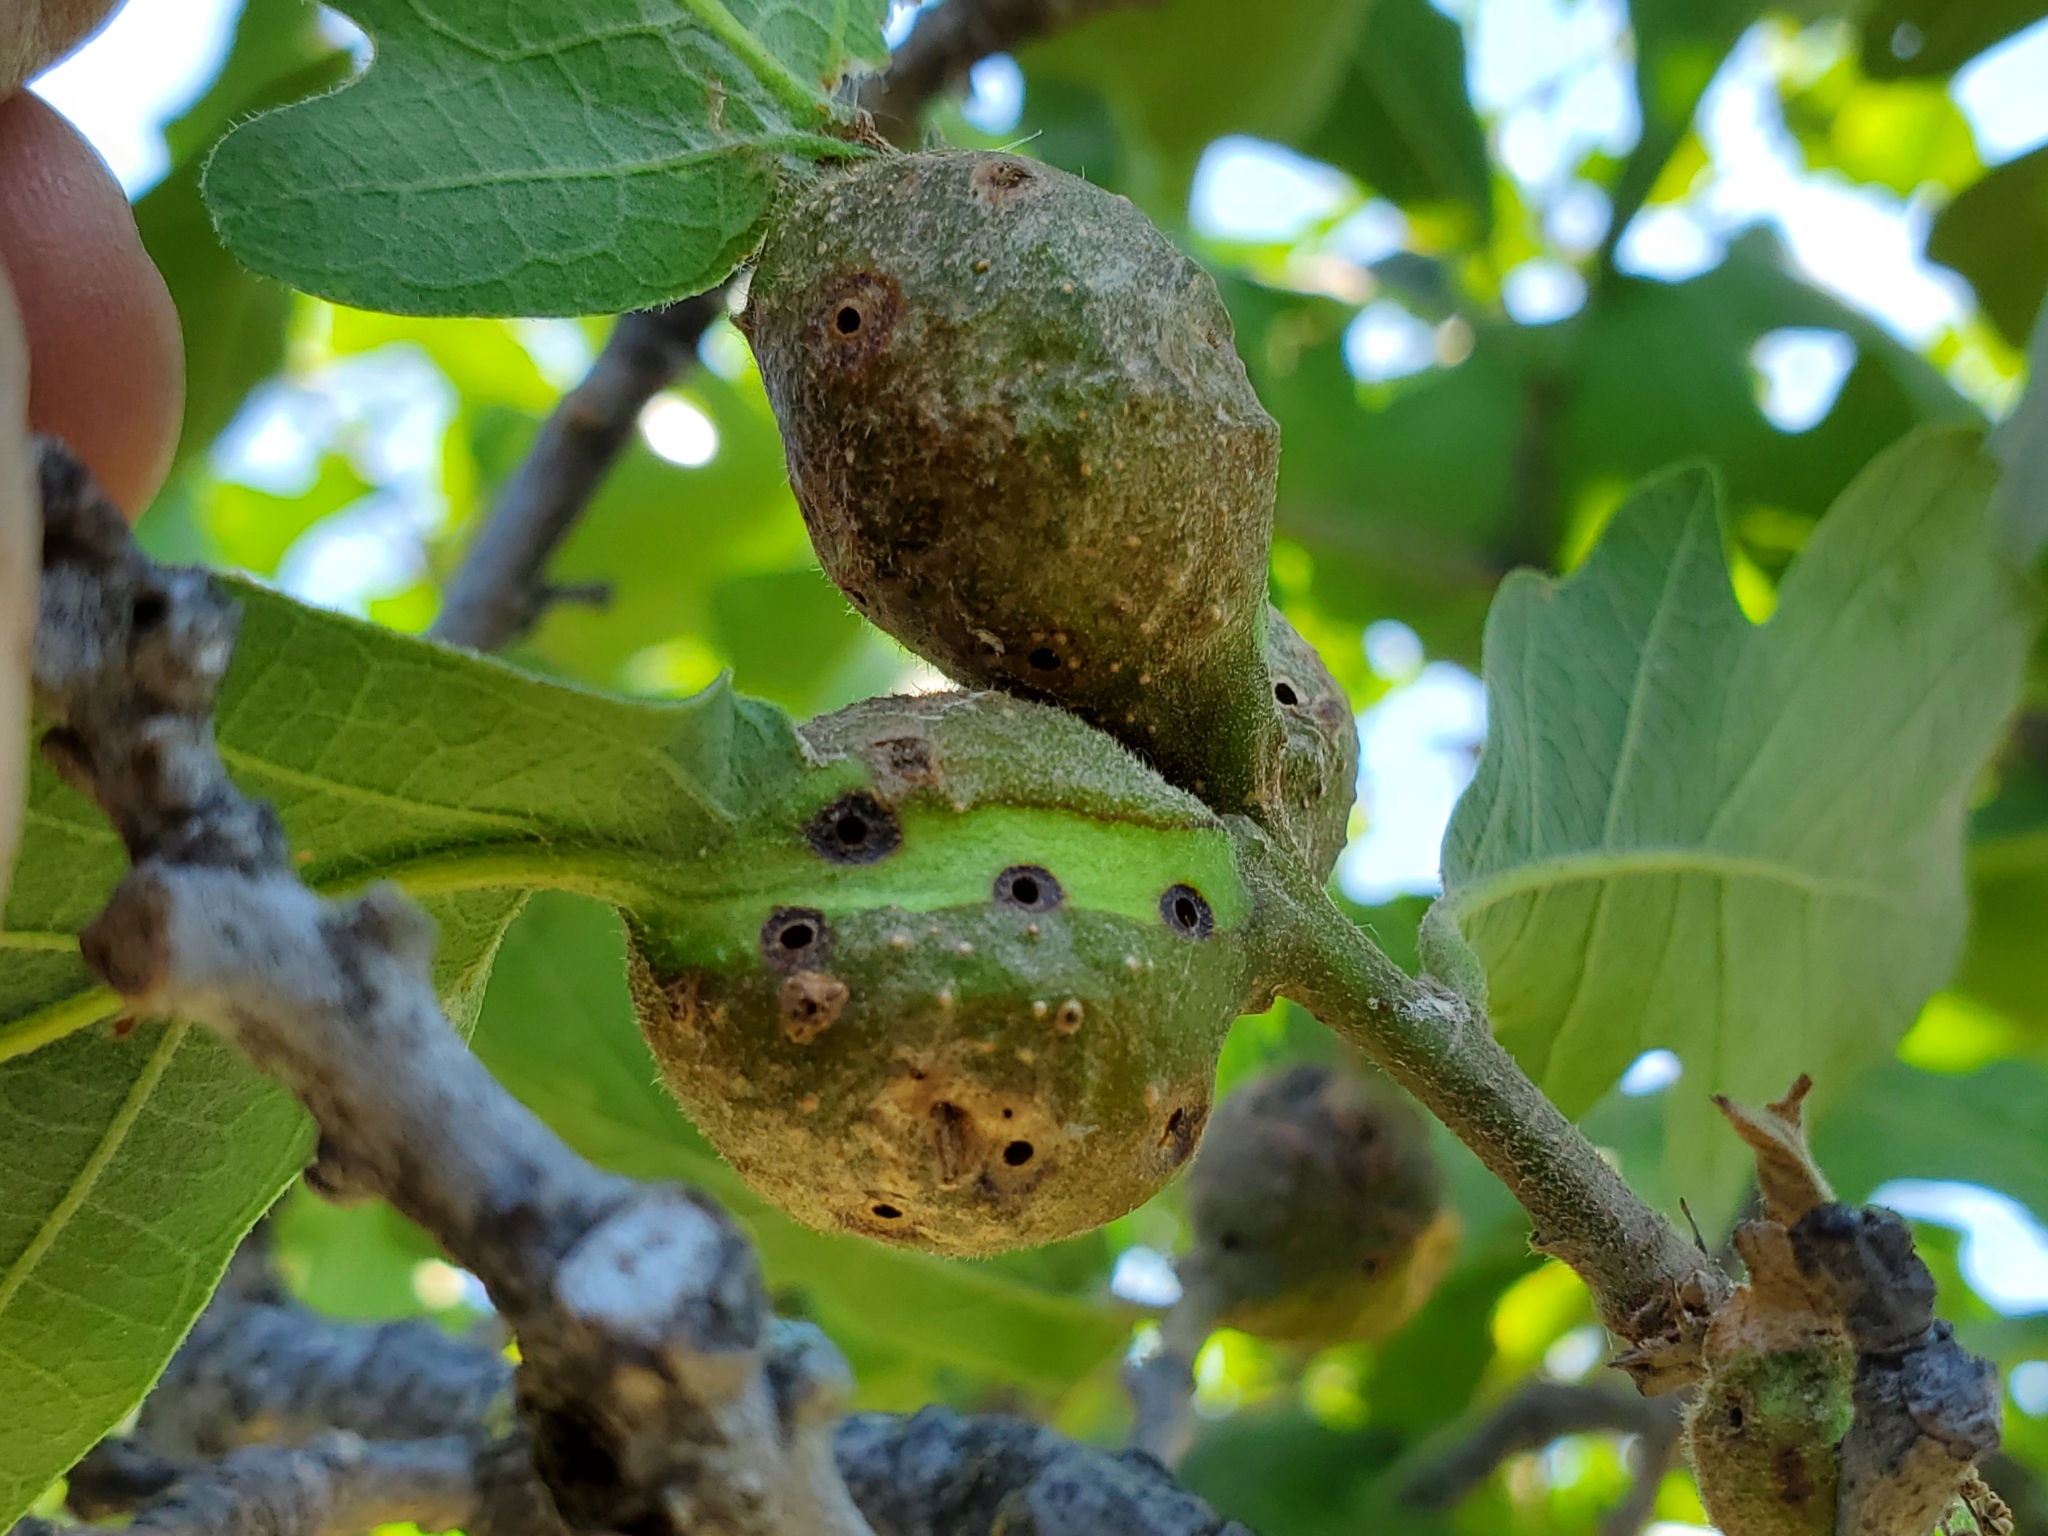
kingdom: Animalia
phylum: Arthropoda
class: Insecta
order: Hymenoptera
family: Cynipidae
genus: Andricus
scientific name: Andricus
